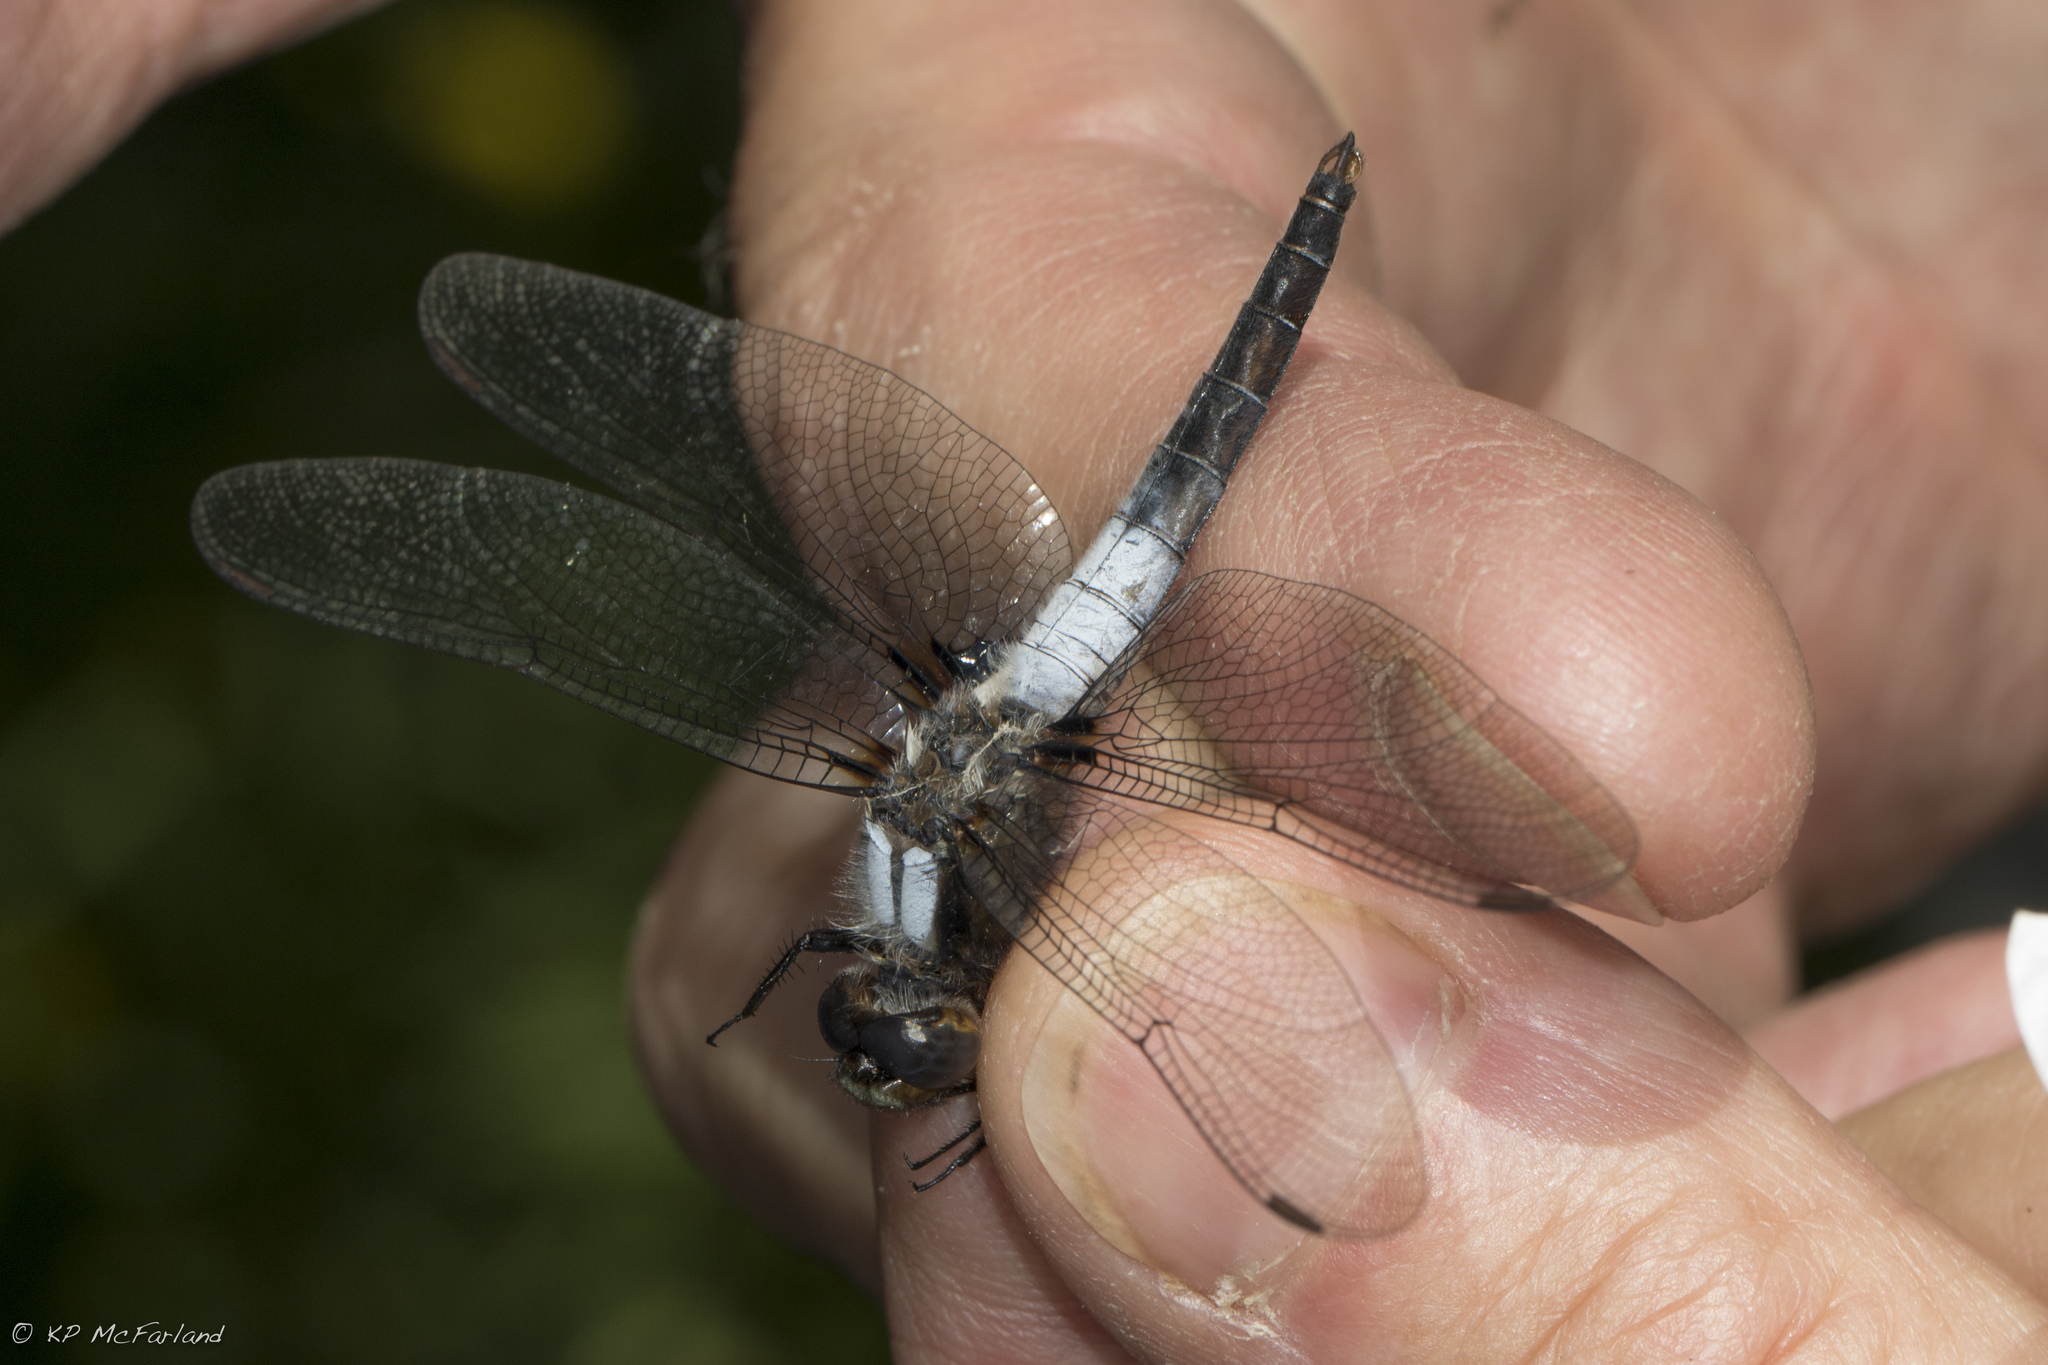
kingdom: Animalia
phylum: Arthropoda
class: Insecta
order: Odonata
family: Libellulidae
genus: Ladona
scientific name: Ladona julia
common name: Chalk-fronted corporal
